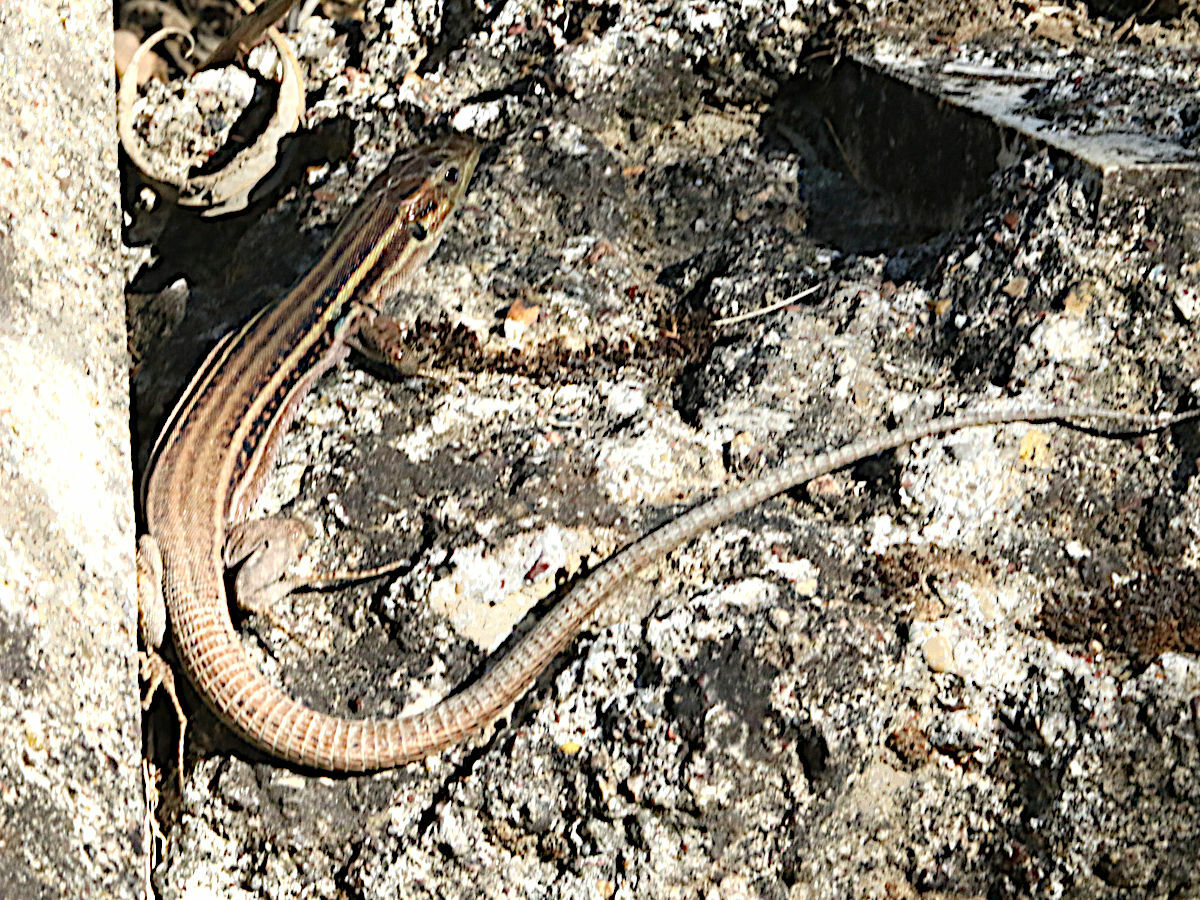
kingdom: Animalia
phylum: Chordata
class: Squamata
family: Lacertidae
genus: Podarcis
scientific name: Podarcis peloponnesiacus
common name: Peloponnese wall lizard
